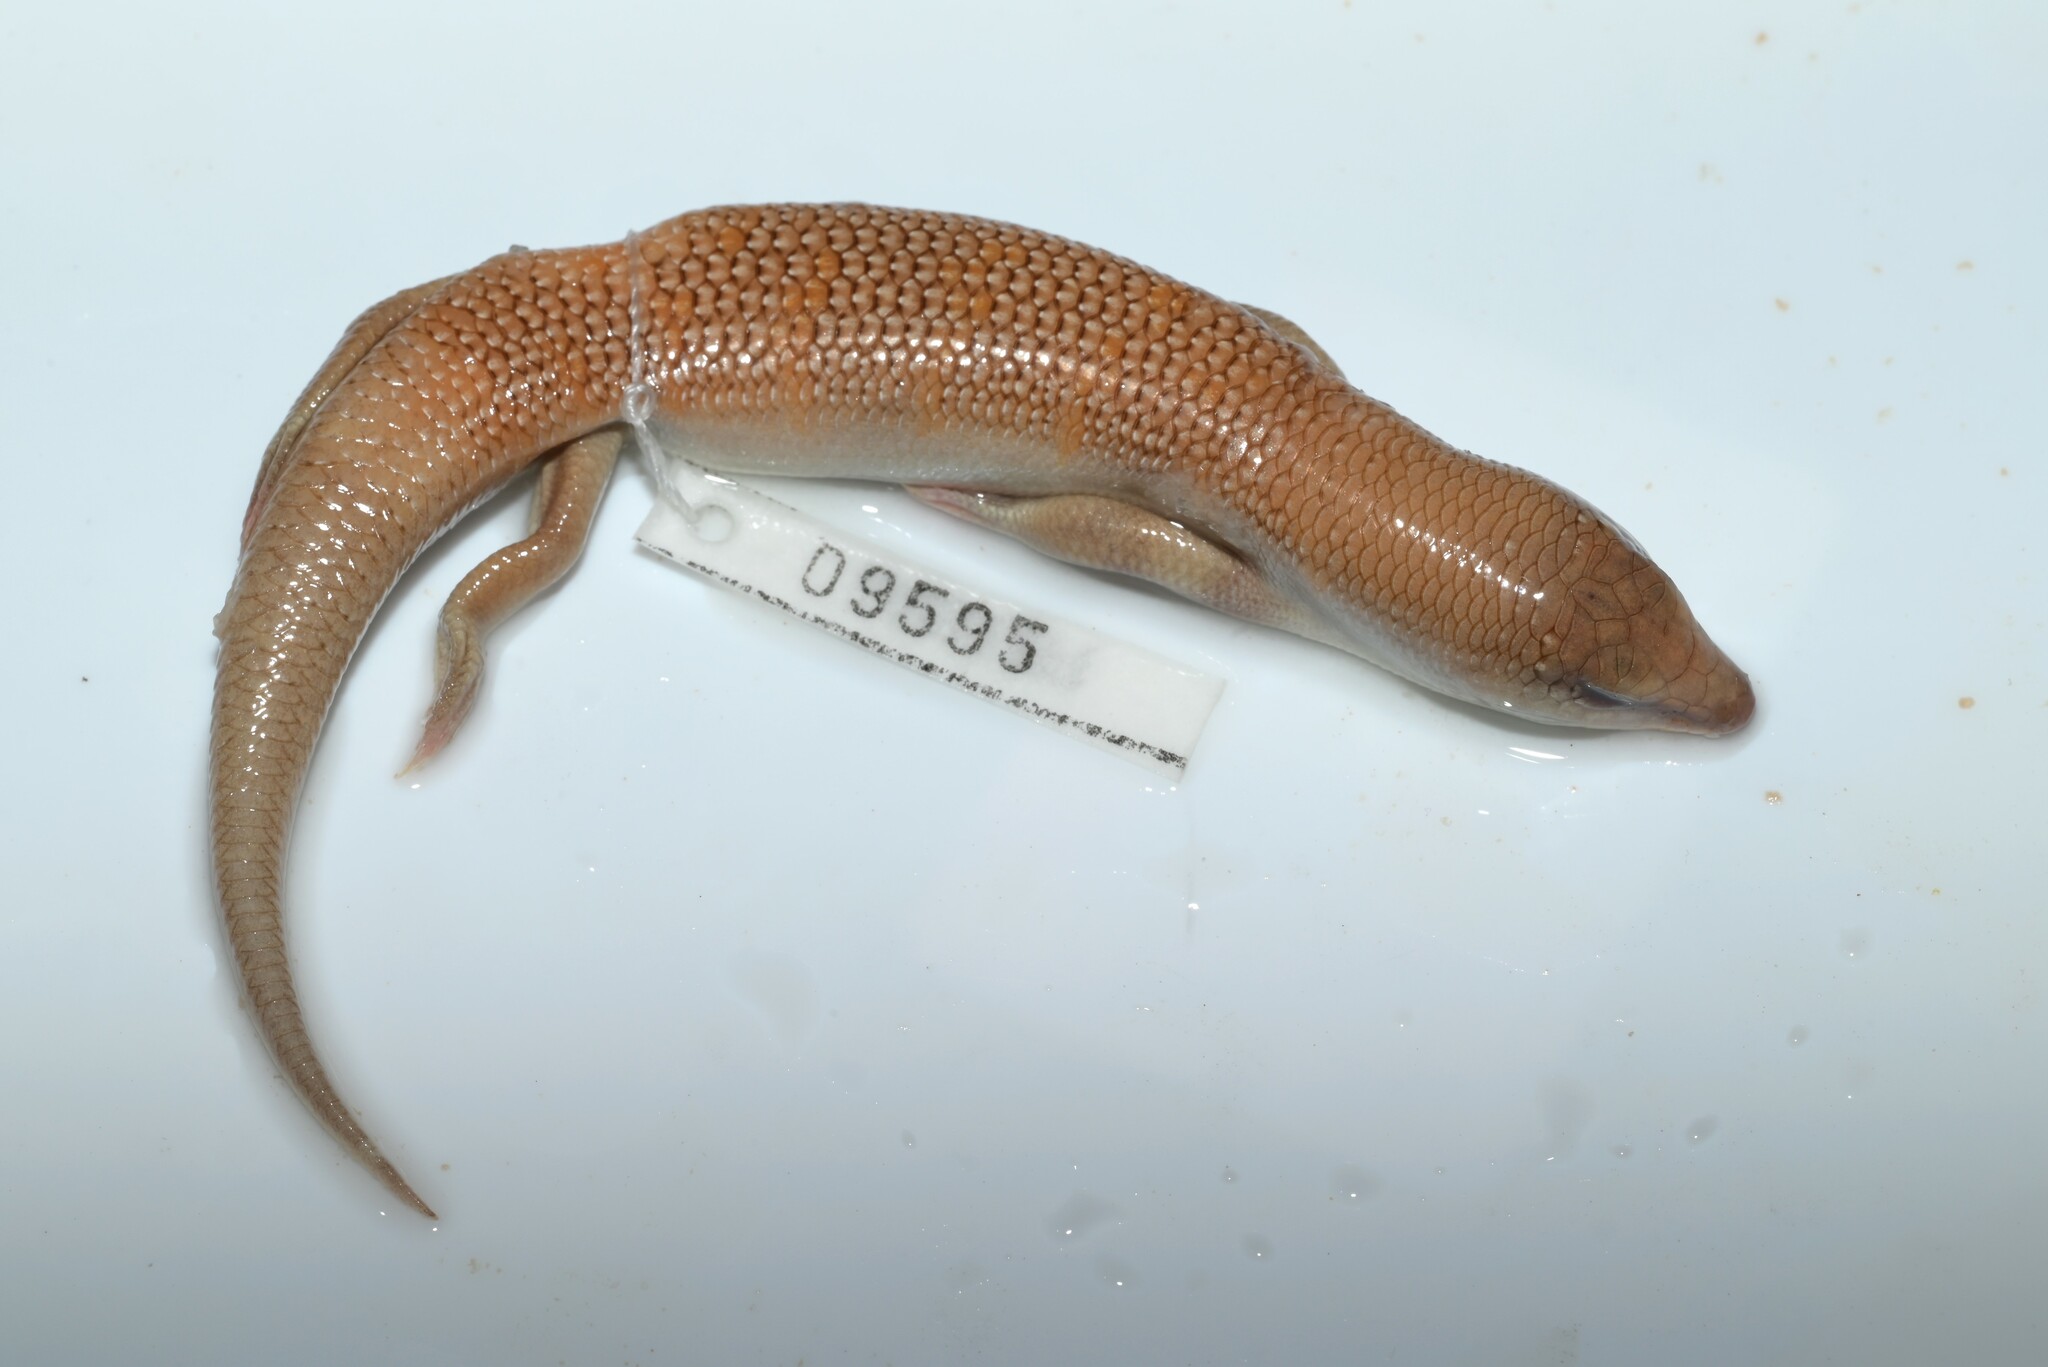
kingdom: Animalia
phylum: Chordata
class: Squamata
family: Scincidae
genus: Scincus
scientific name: Scincus conirostris
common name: Sandfish skink
